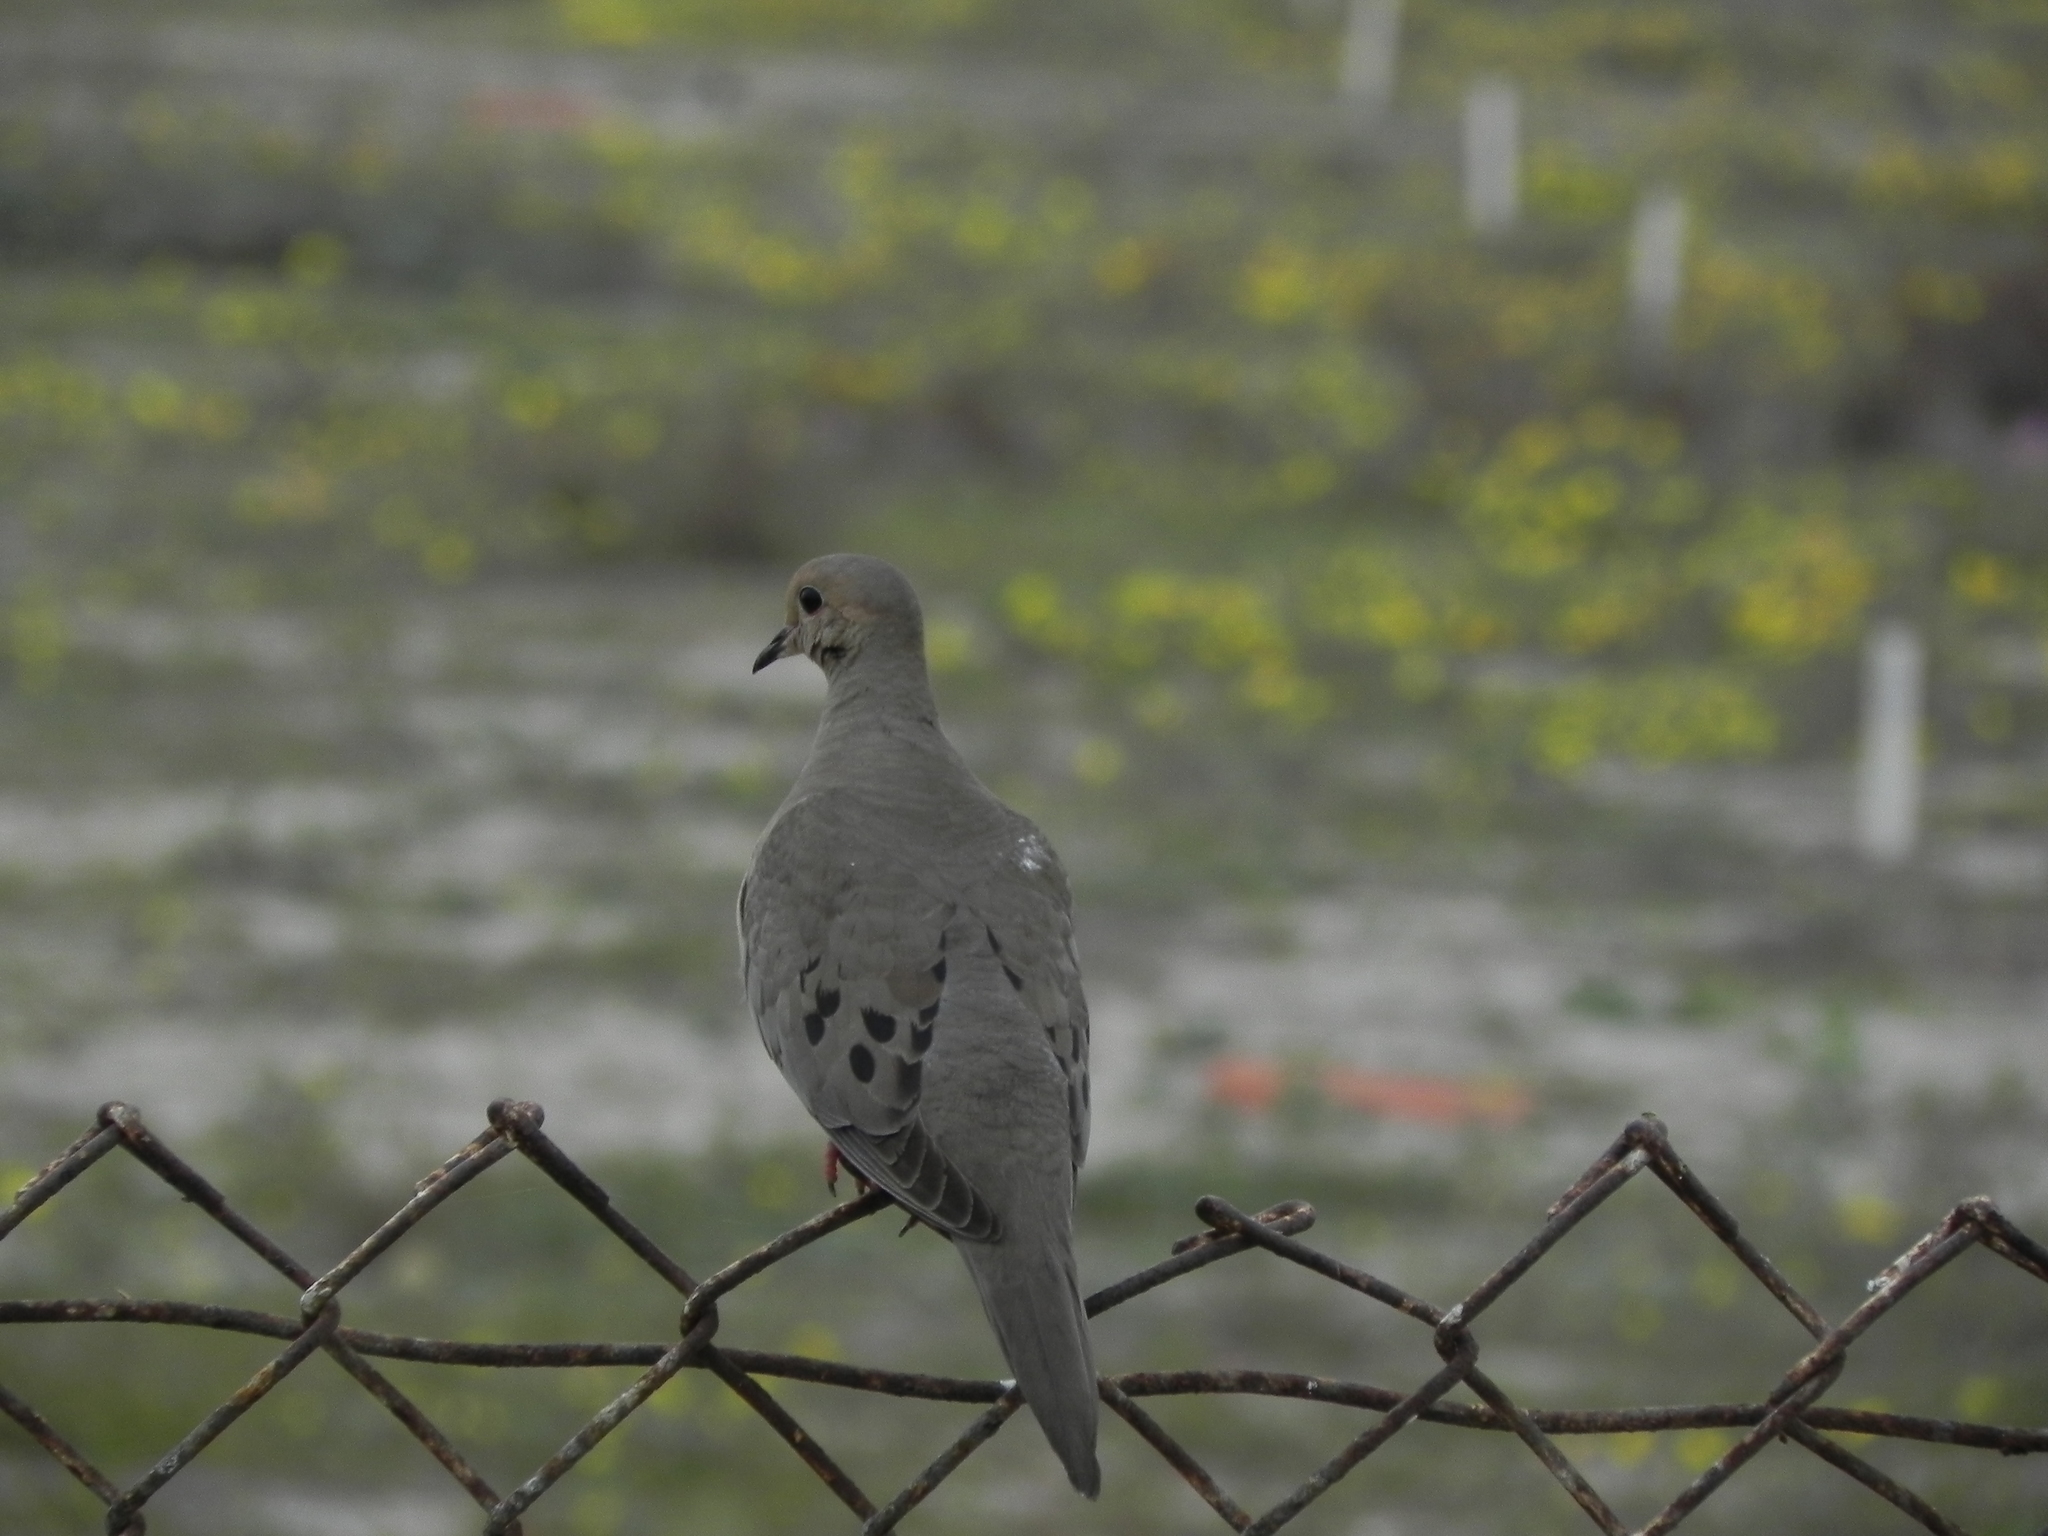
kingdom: Animalia
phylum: Chordata
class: Aves
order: Columbiformes
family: Columbidae
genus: Zenaida
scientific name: Zenaida macroura
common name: Mourning dove
